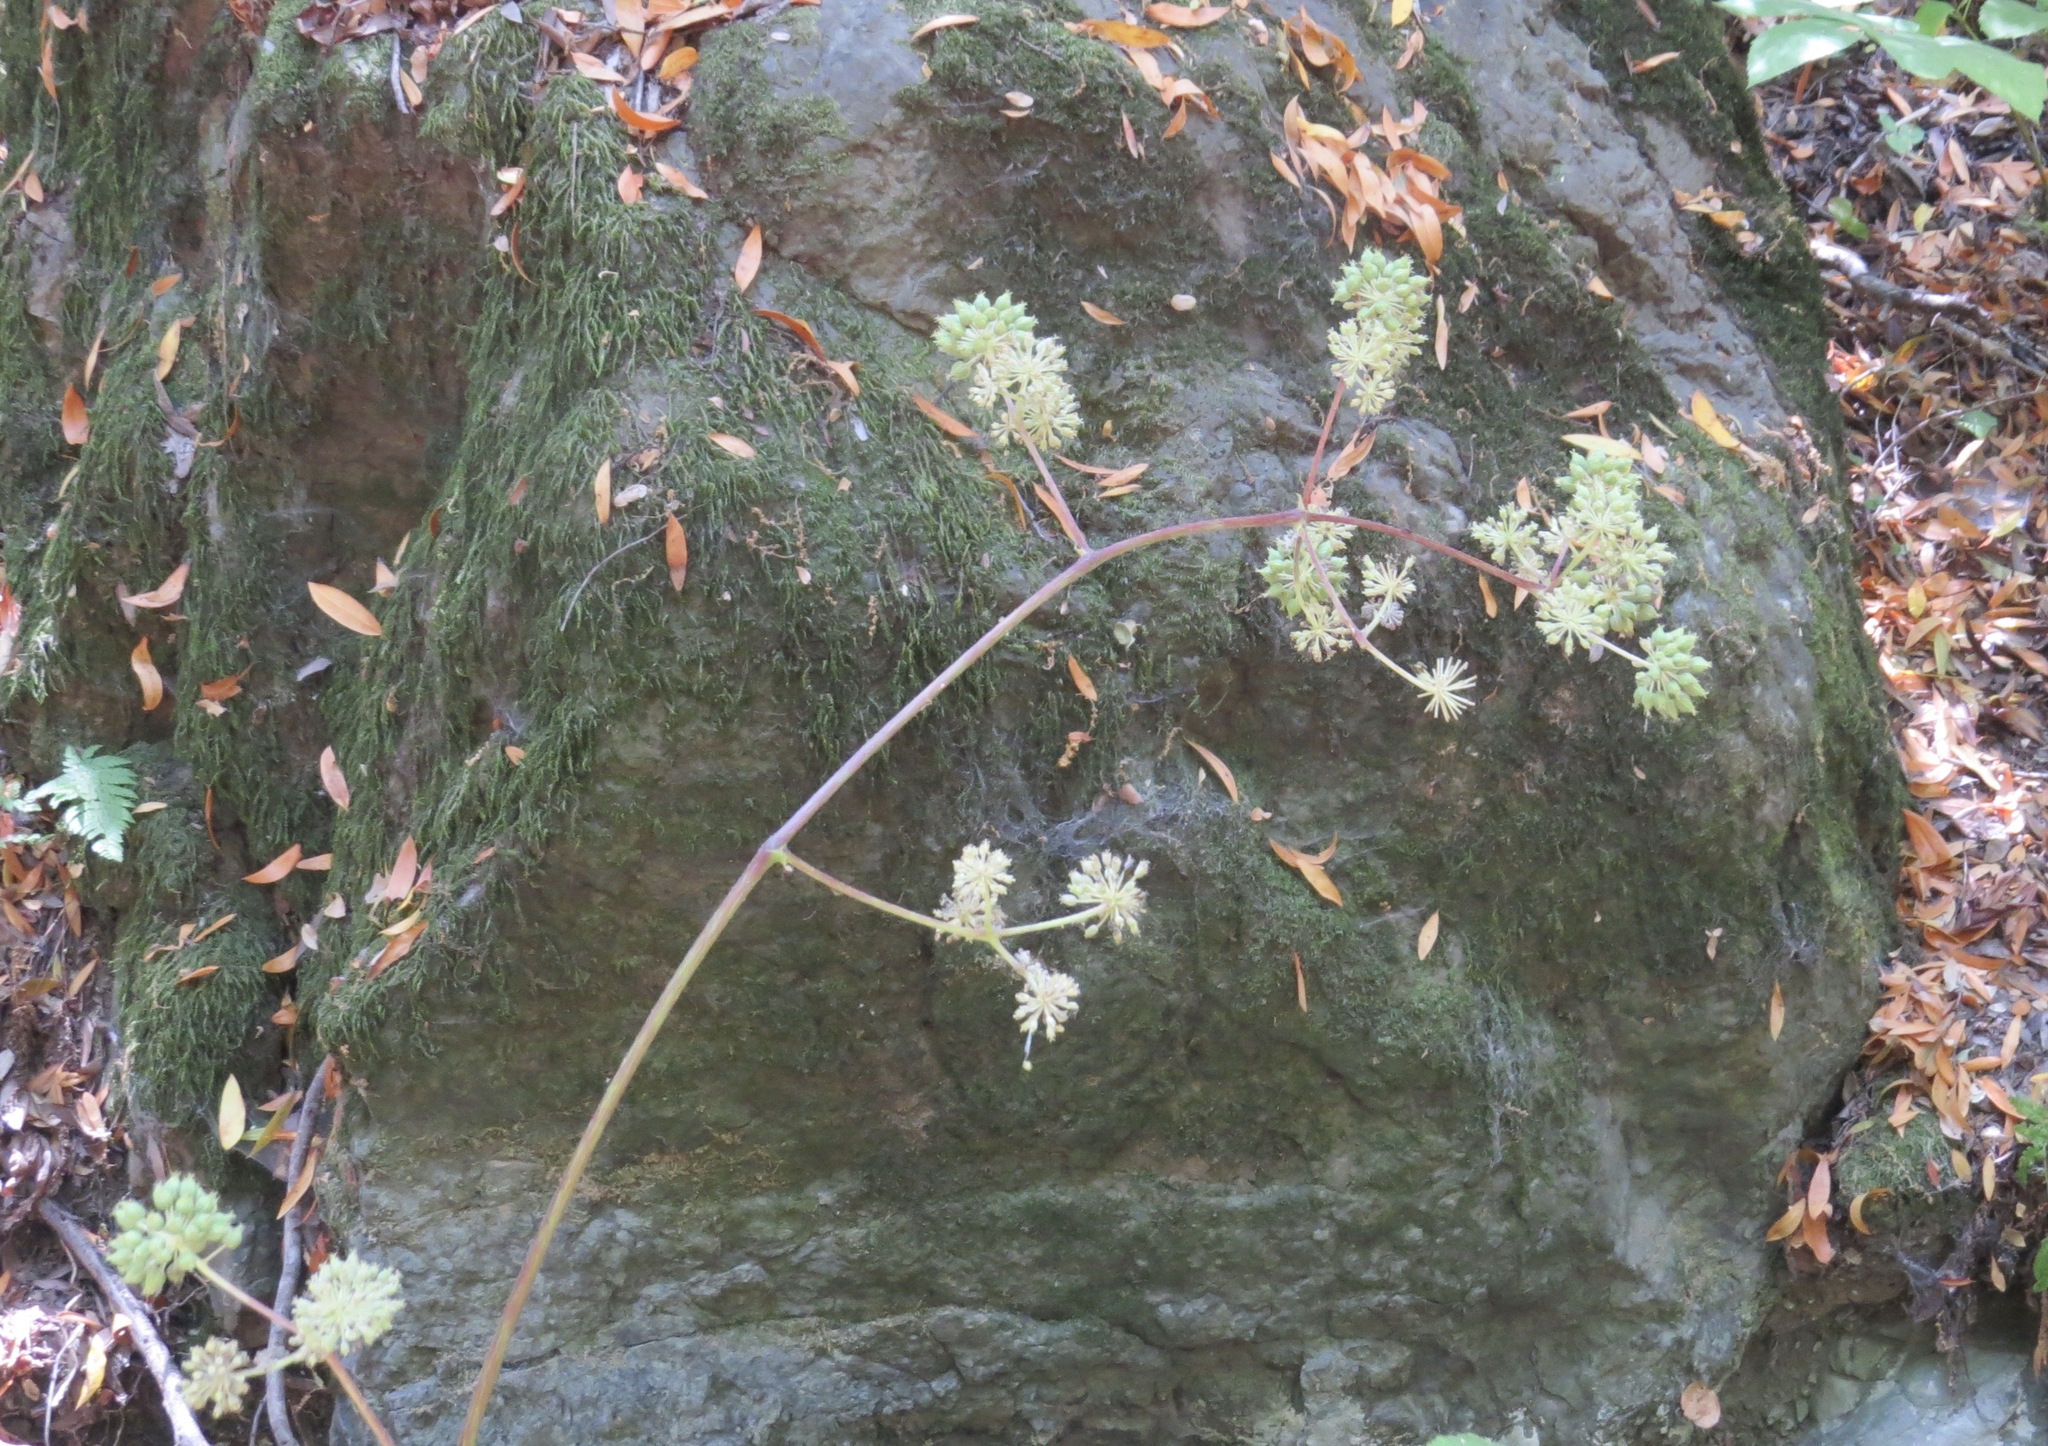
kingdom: Plantae
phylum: Tracheophyta
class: Magnoliopsida
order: Apiales
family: Araliaceae
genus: Aralia
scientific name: Aralia californica
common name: California-ginseng
